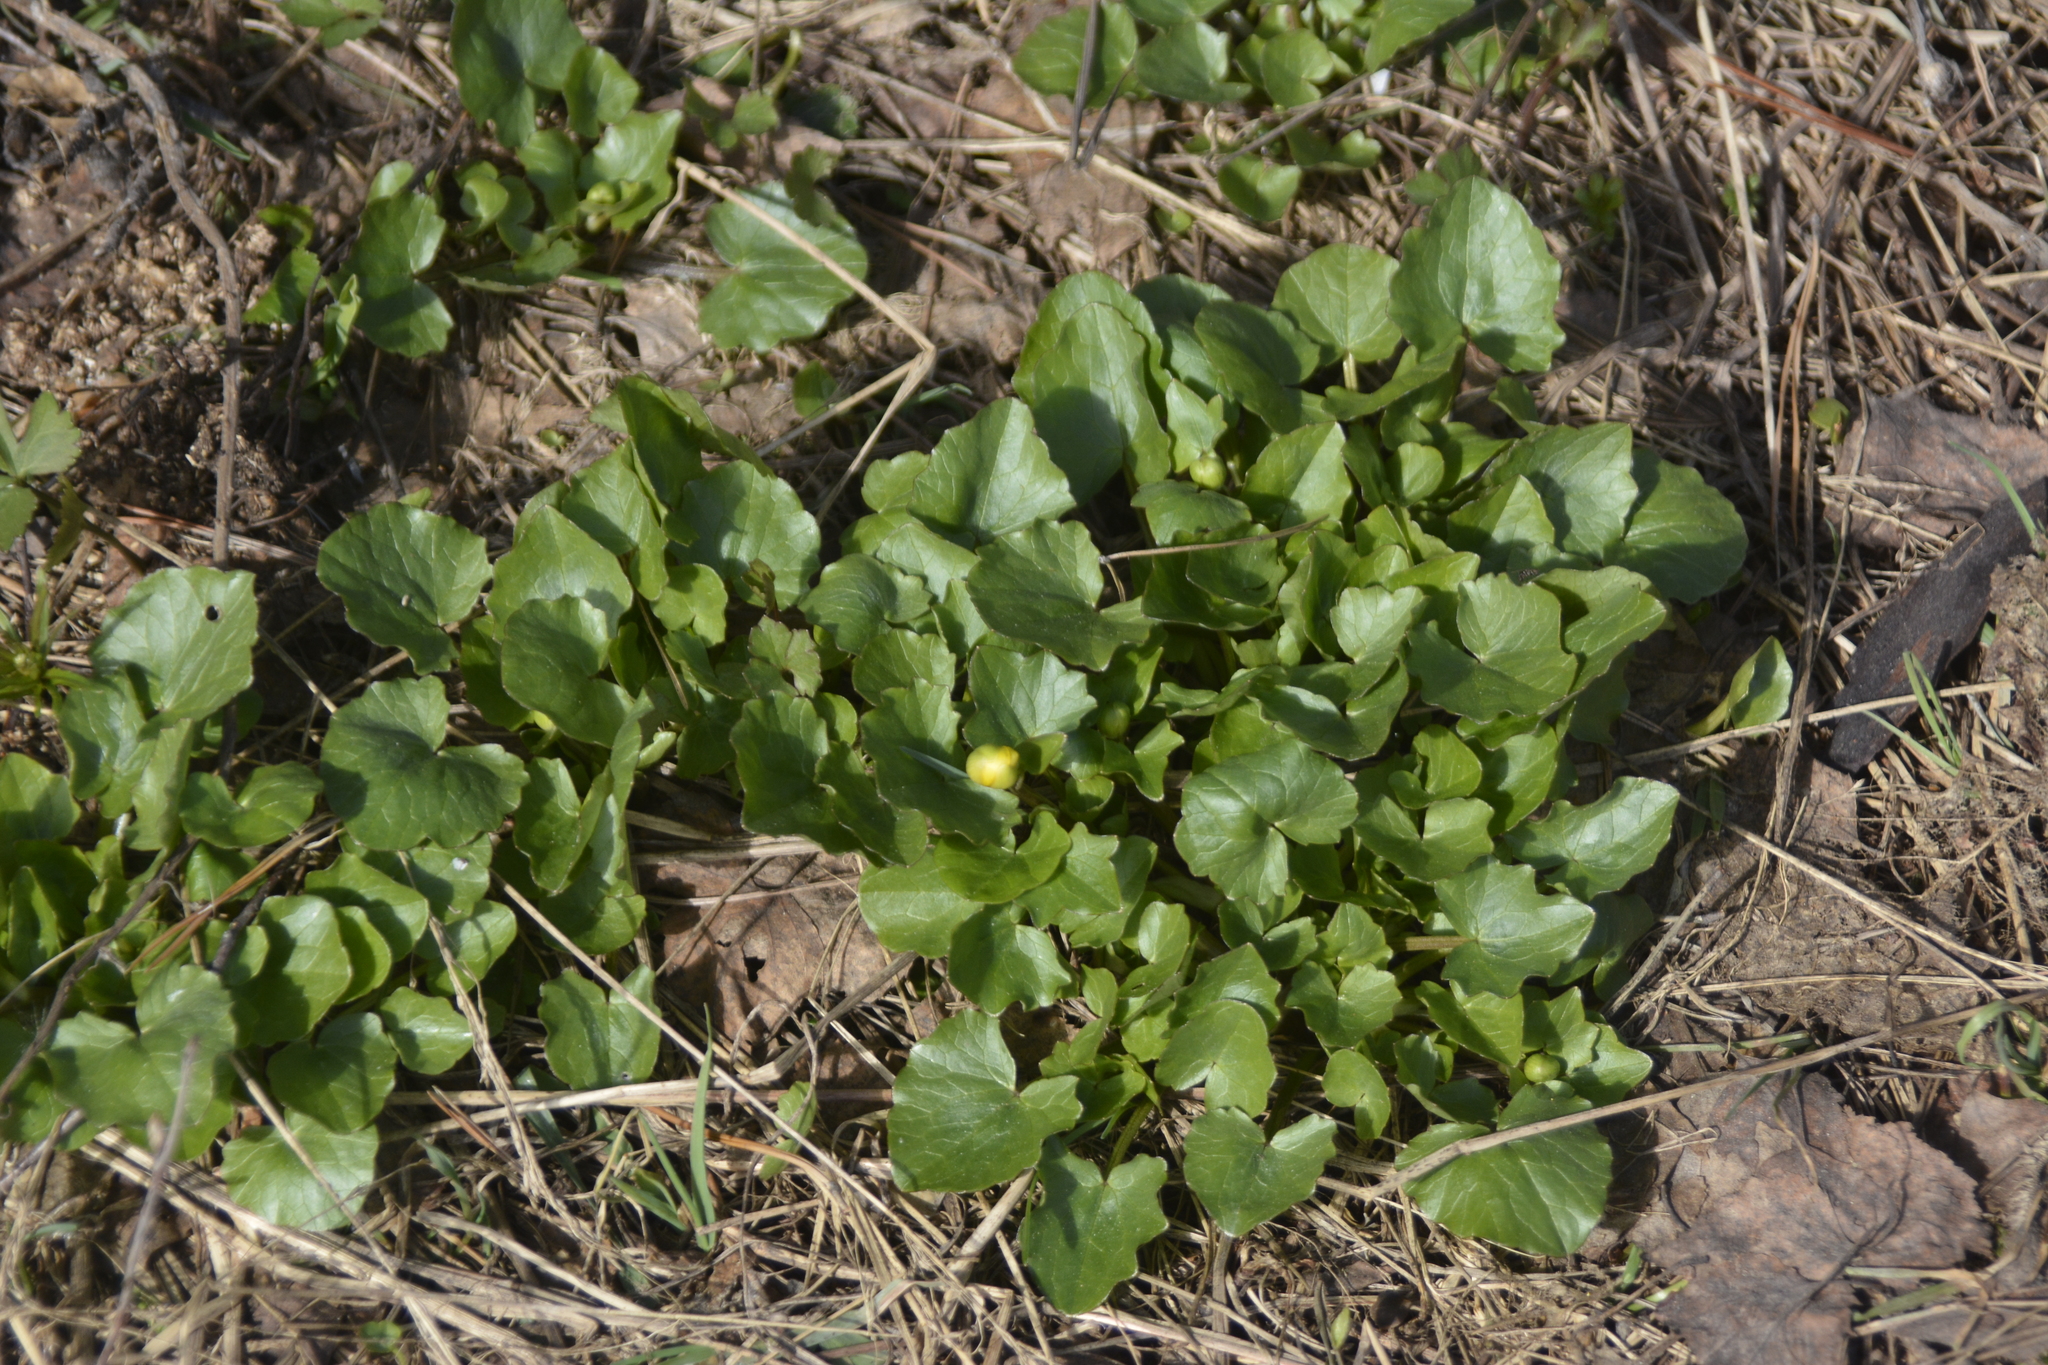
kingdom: Plantae
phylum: Tracheophyta
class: Magnoliopsida
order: Ranunculales
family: Ranunculaceae
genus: Ficaria
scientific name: Ficaria verna
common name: Lesser celandine
